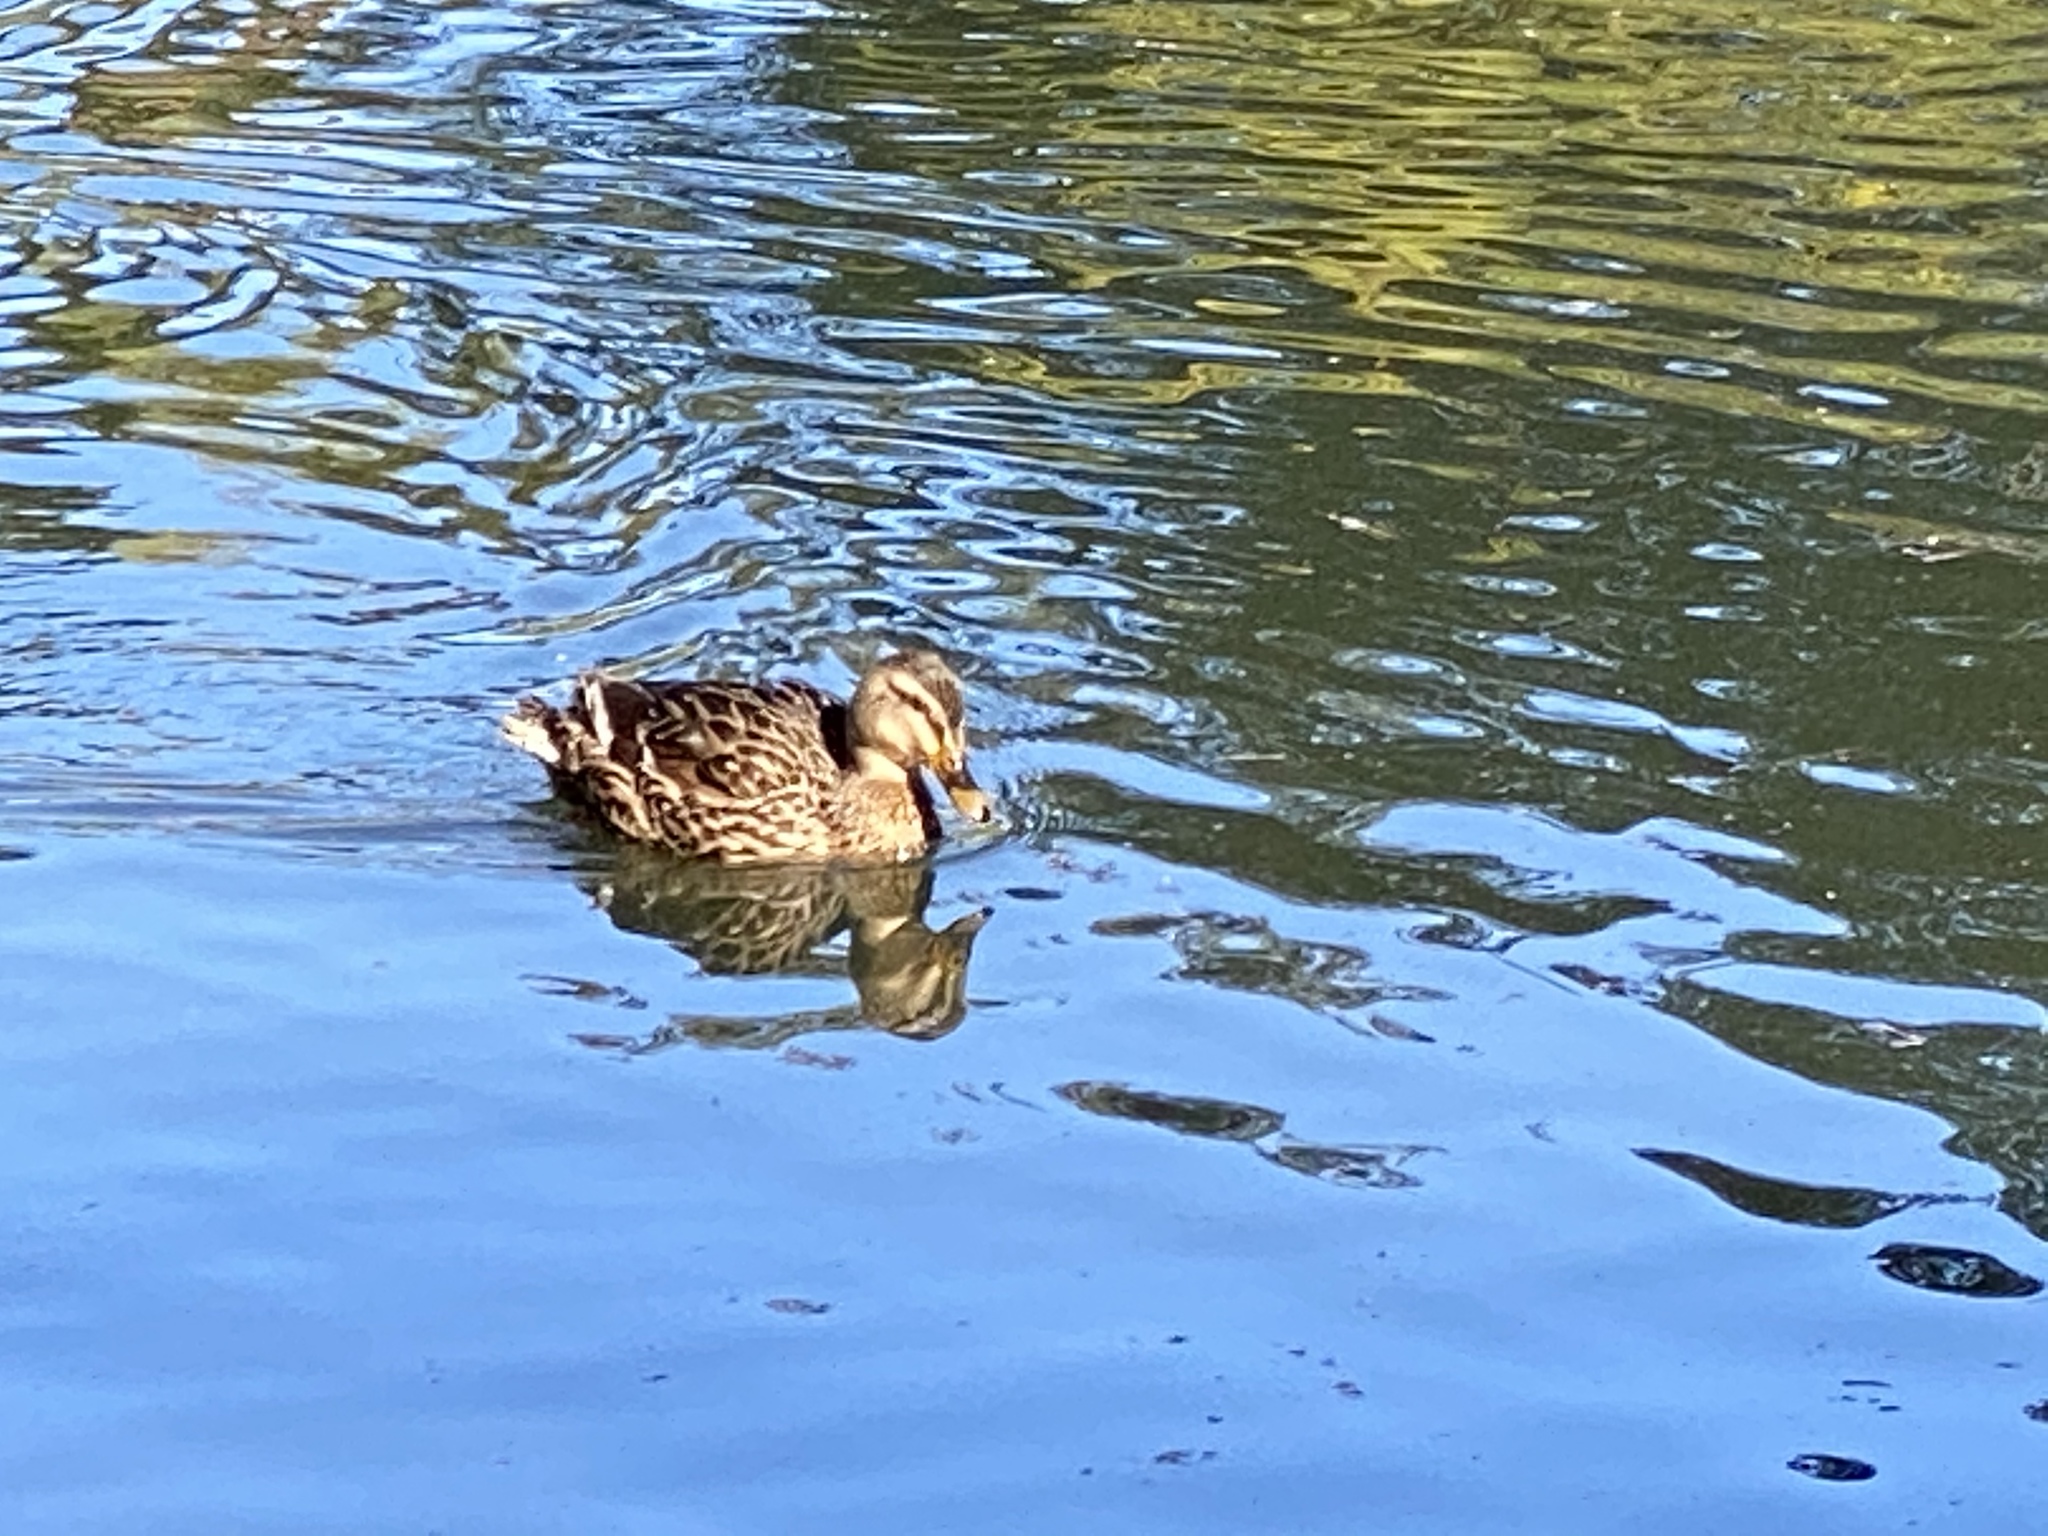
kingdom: Animalia
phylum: Chordata
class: Aves
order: Anseriformes
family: Anatidae
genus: Anas
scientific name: Anas platyrhynchos
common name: Mallard
